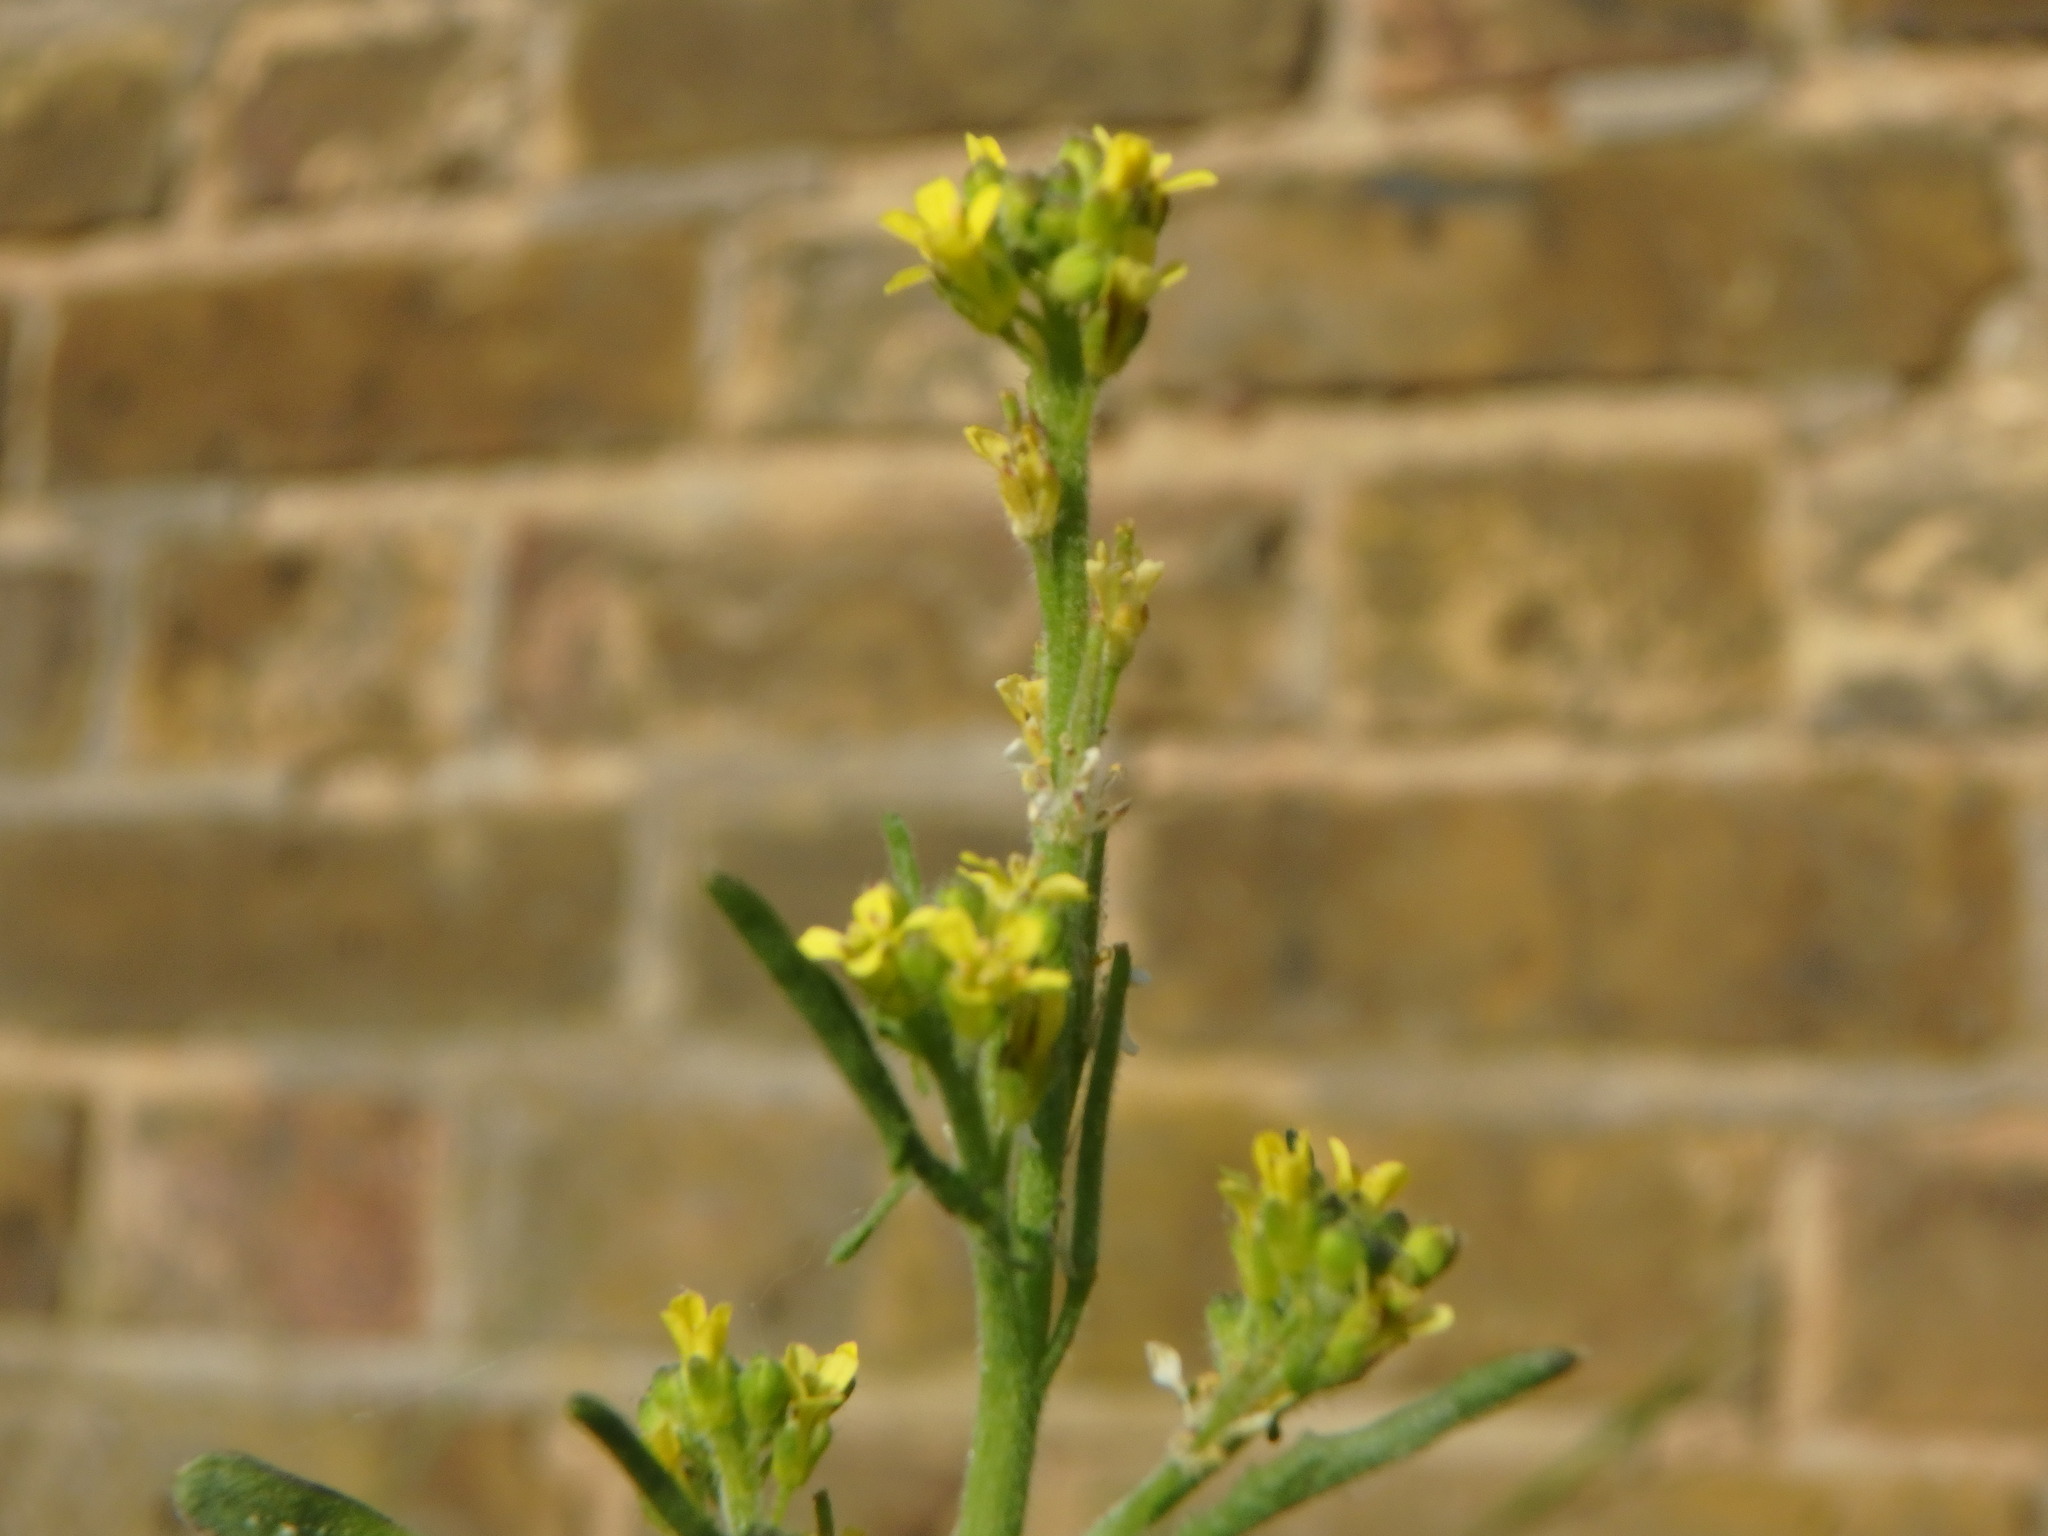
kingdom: Plantae
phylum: Tracheophyta
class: Magnoliopsida
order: Brassicales
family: Brassicaceae
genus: Sisymbrium
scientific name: Sisymbrium officinale
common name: Hedge mustard
